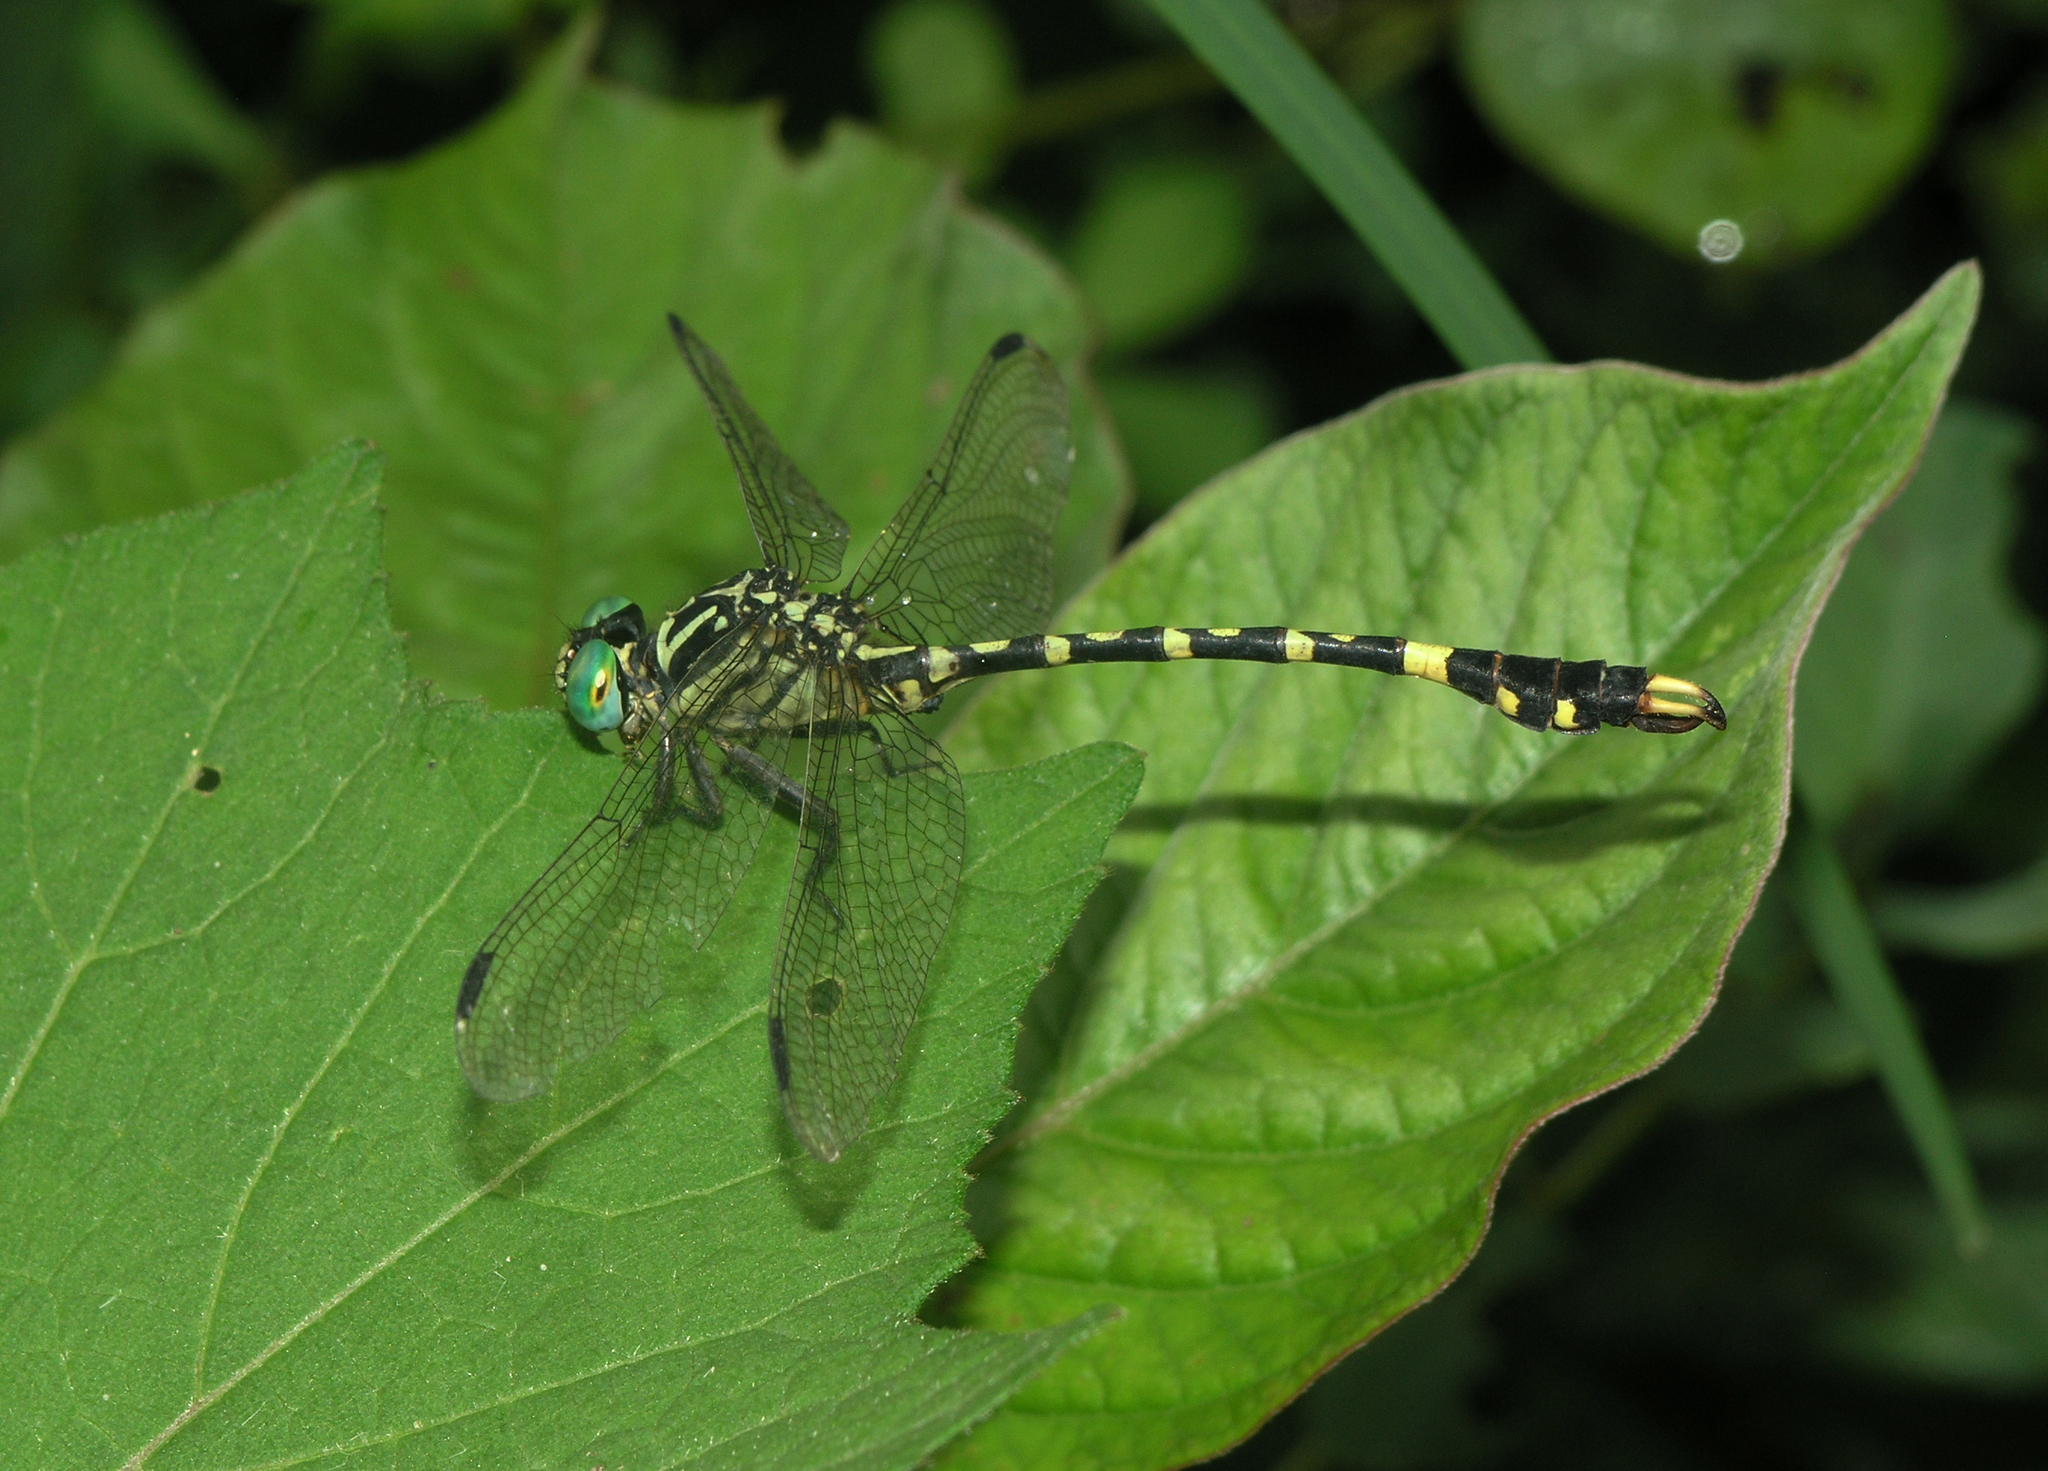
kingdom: Animalia
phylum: Arthropoda
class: Insecta
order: Odonata
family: Gomphidae
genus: Nychogomphus
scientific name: Nychogomphus duaricus
